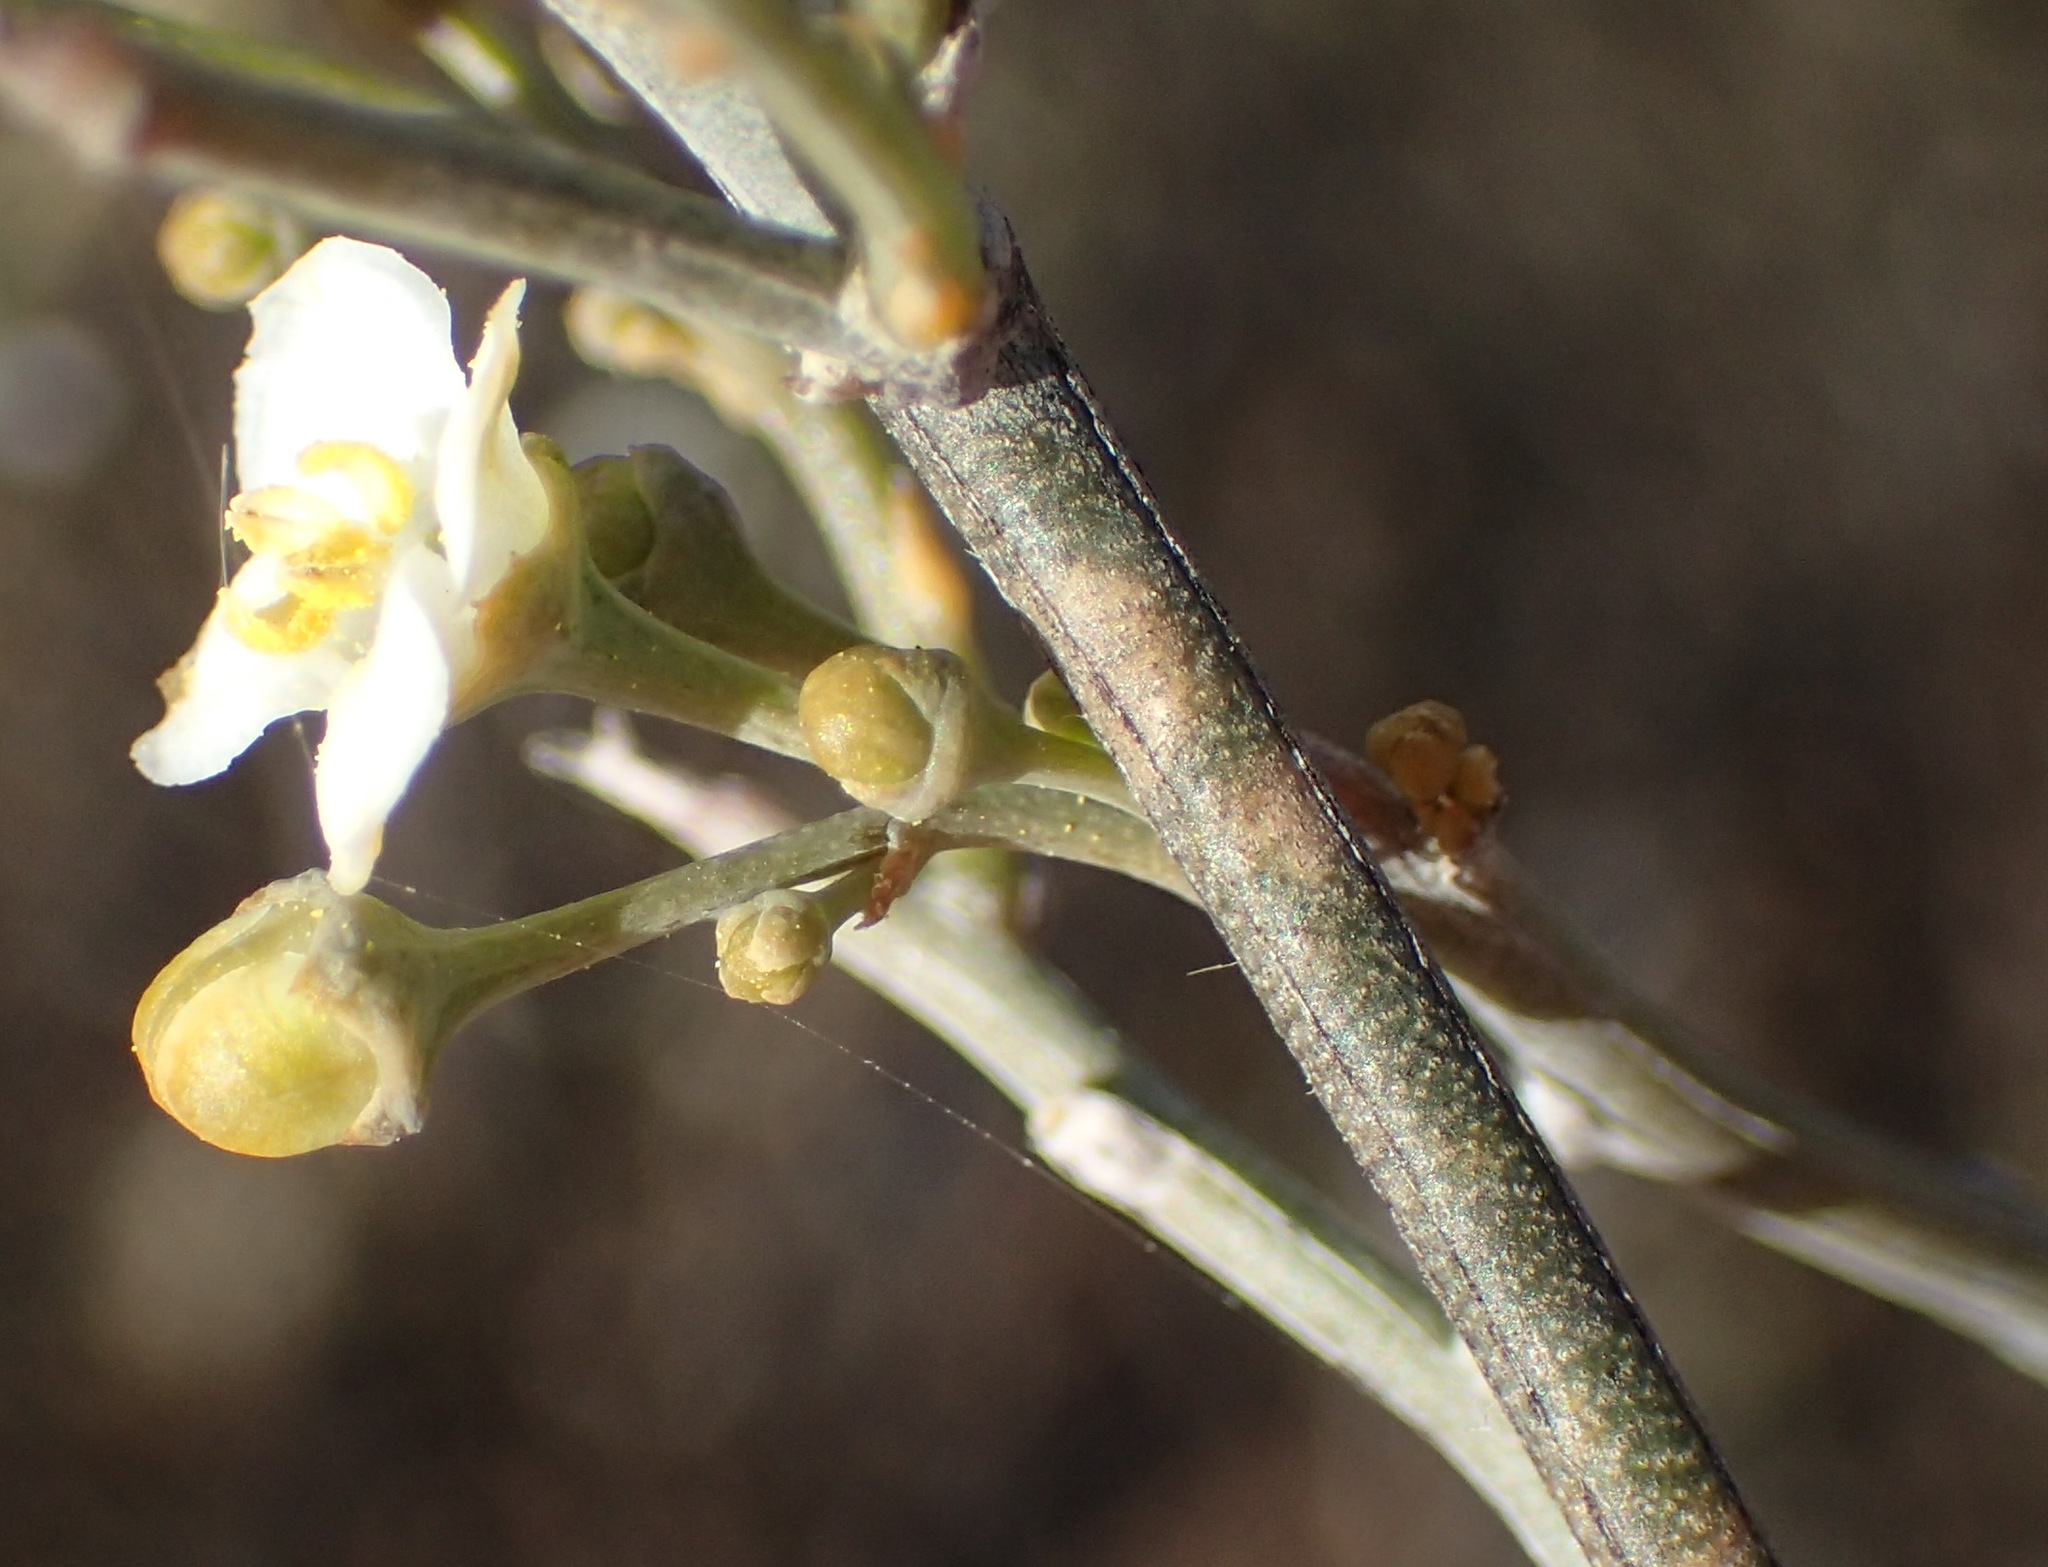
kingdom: Plantae
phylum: Tracheophyta
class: Magnoliopsida
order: Solanales
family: Montiniaceae
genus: Montinia
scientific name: Montinia caryophyllacea
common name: Wild clove-bush
